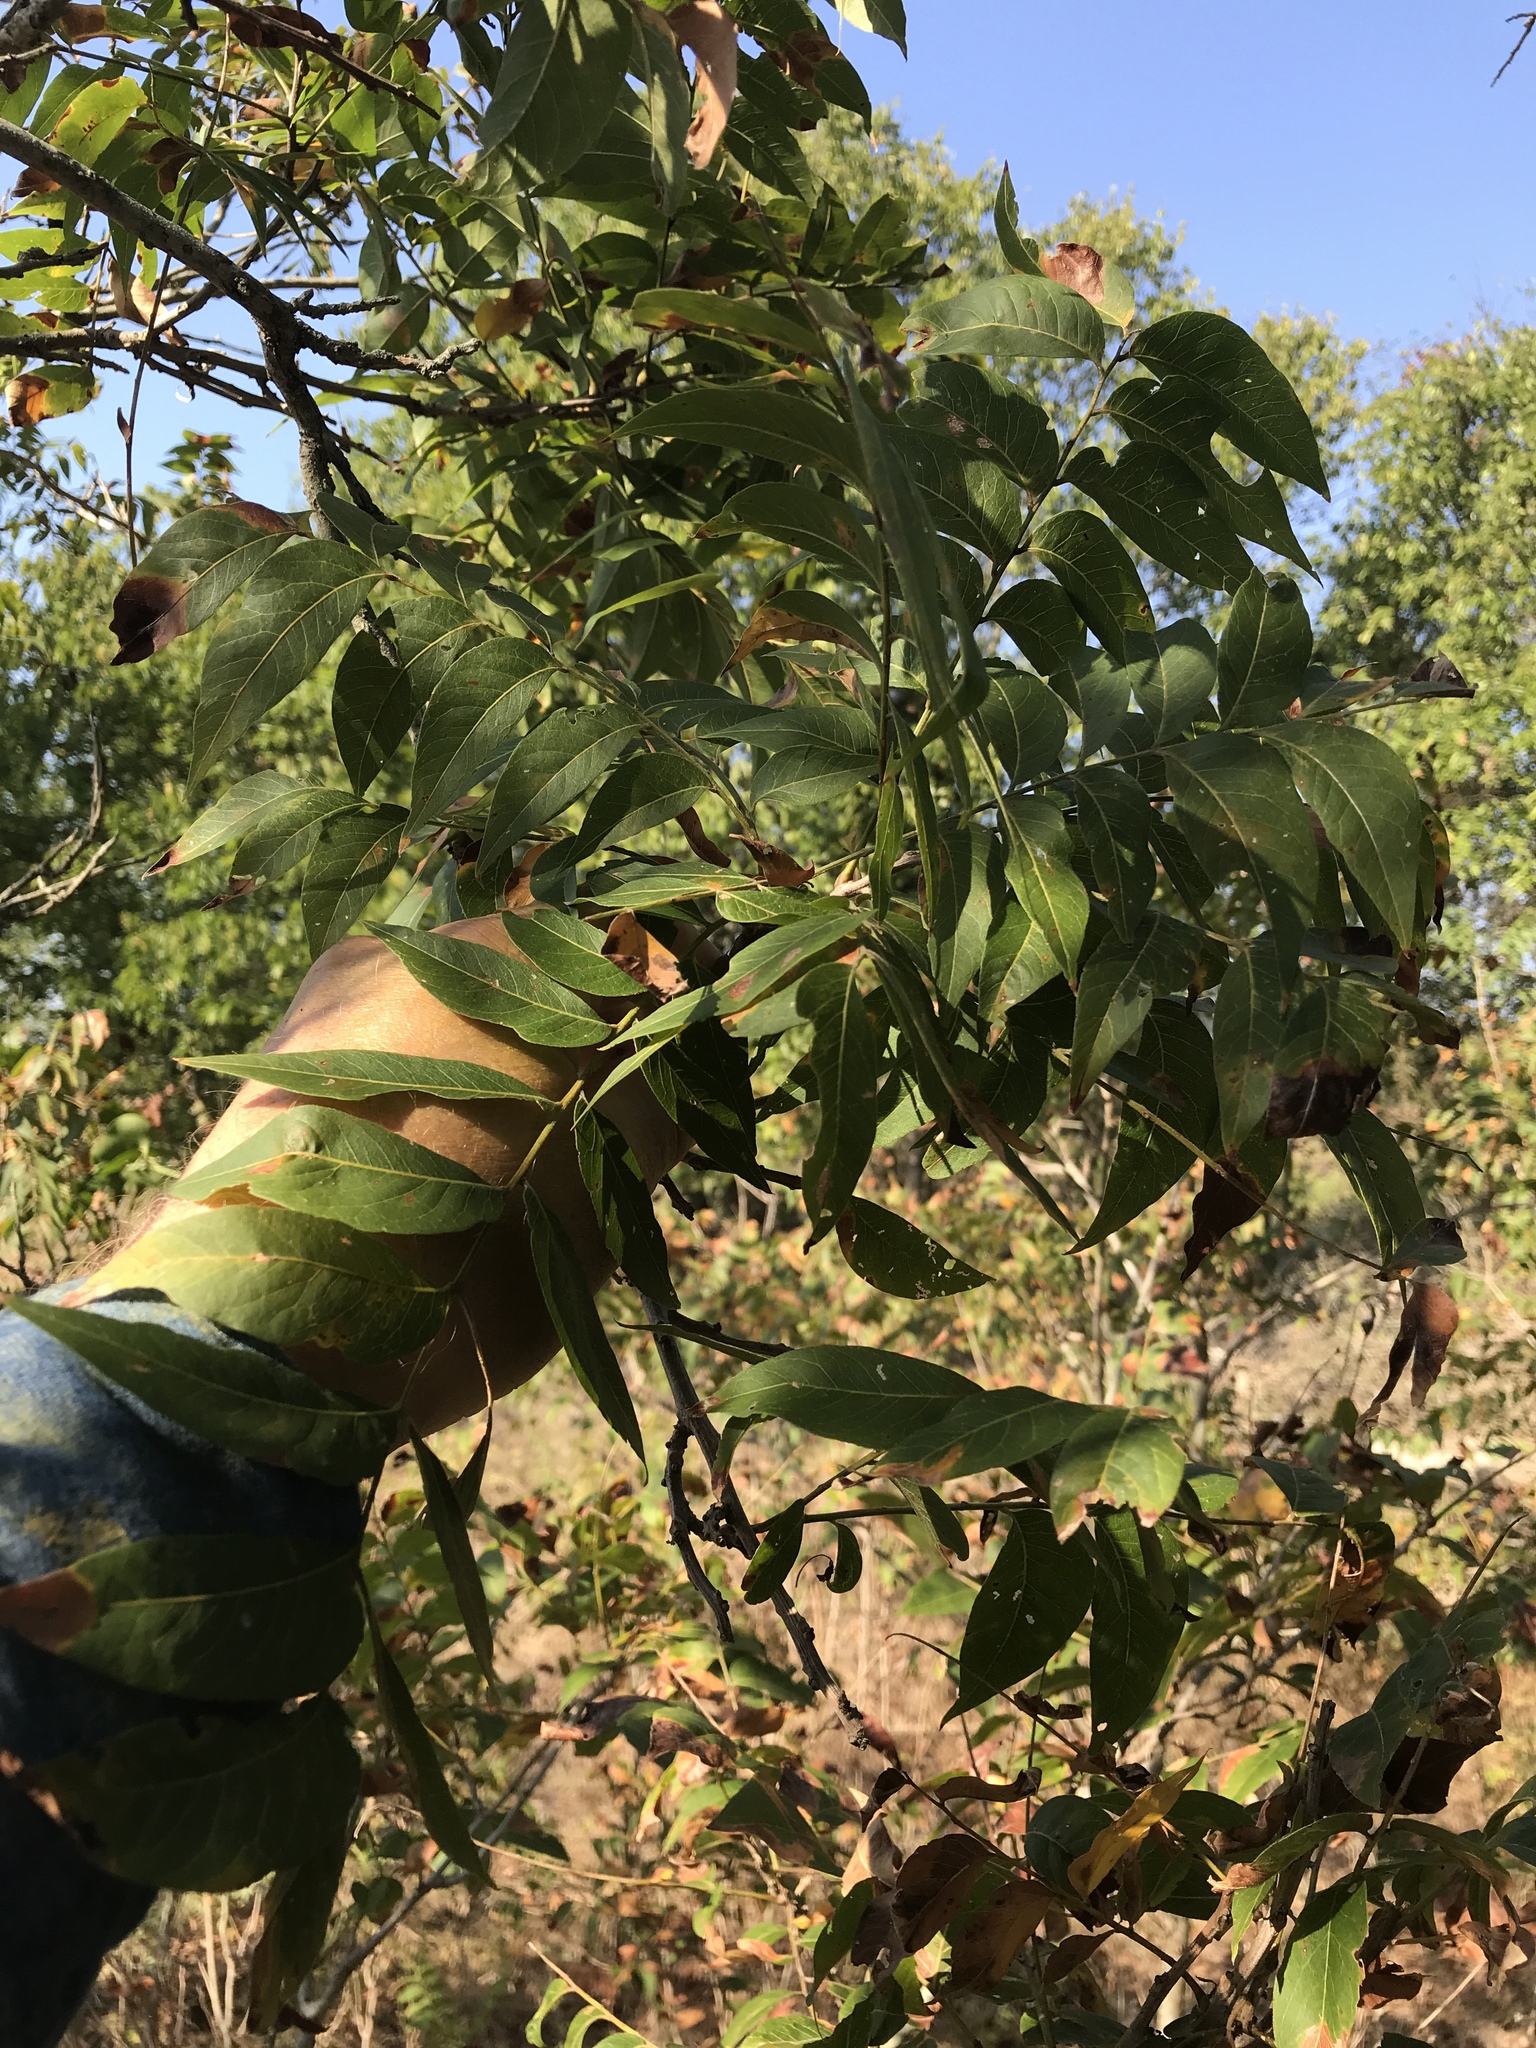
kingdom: Plantae
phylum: Tracheophyta
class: Magnoliopsida
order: Sapindales
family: Sapindaceae
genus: Sapindus
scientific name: Sapindus drummondii
